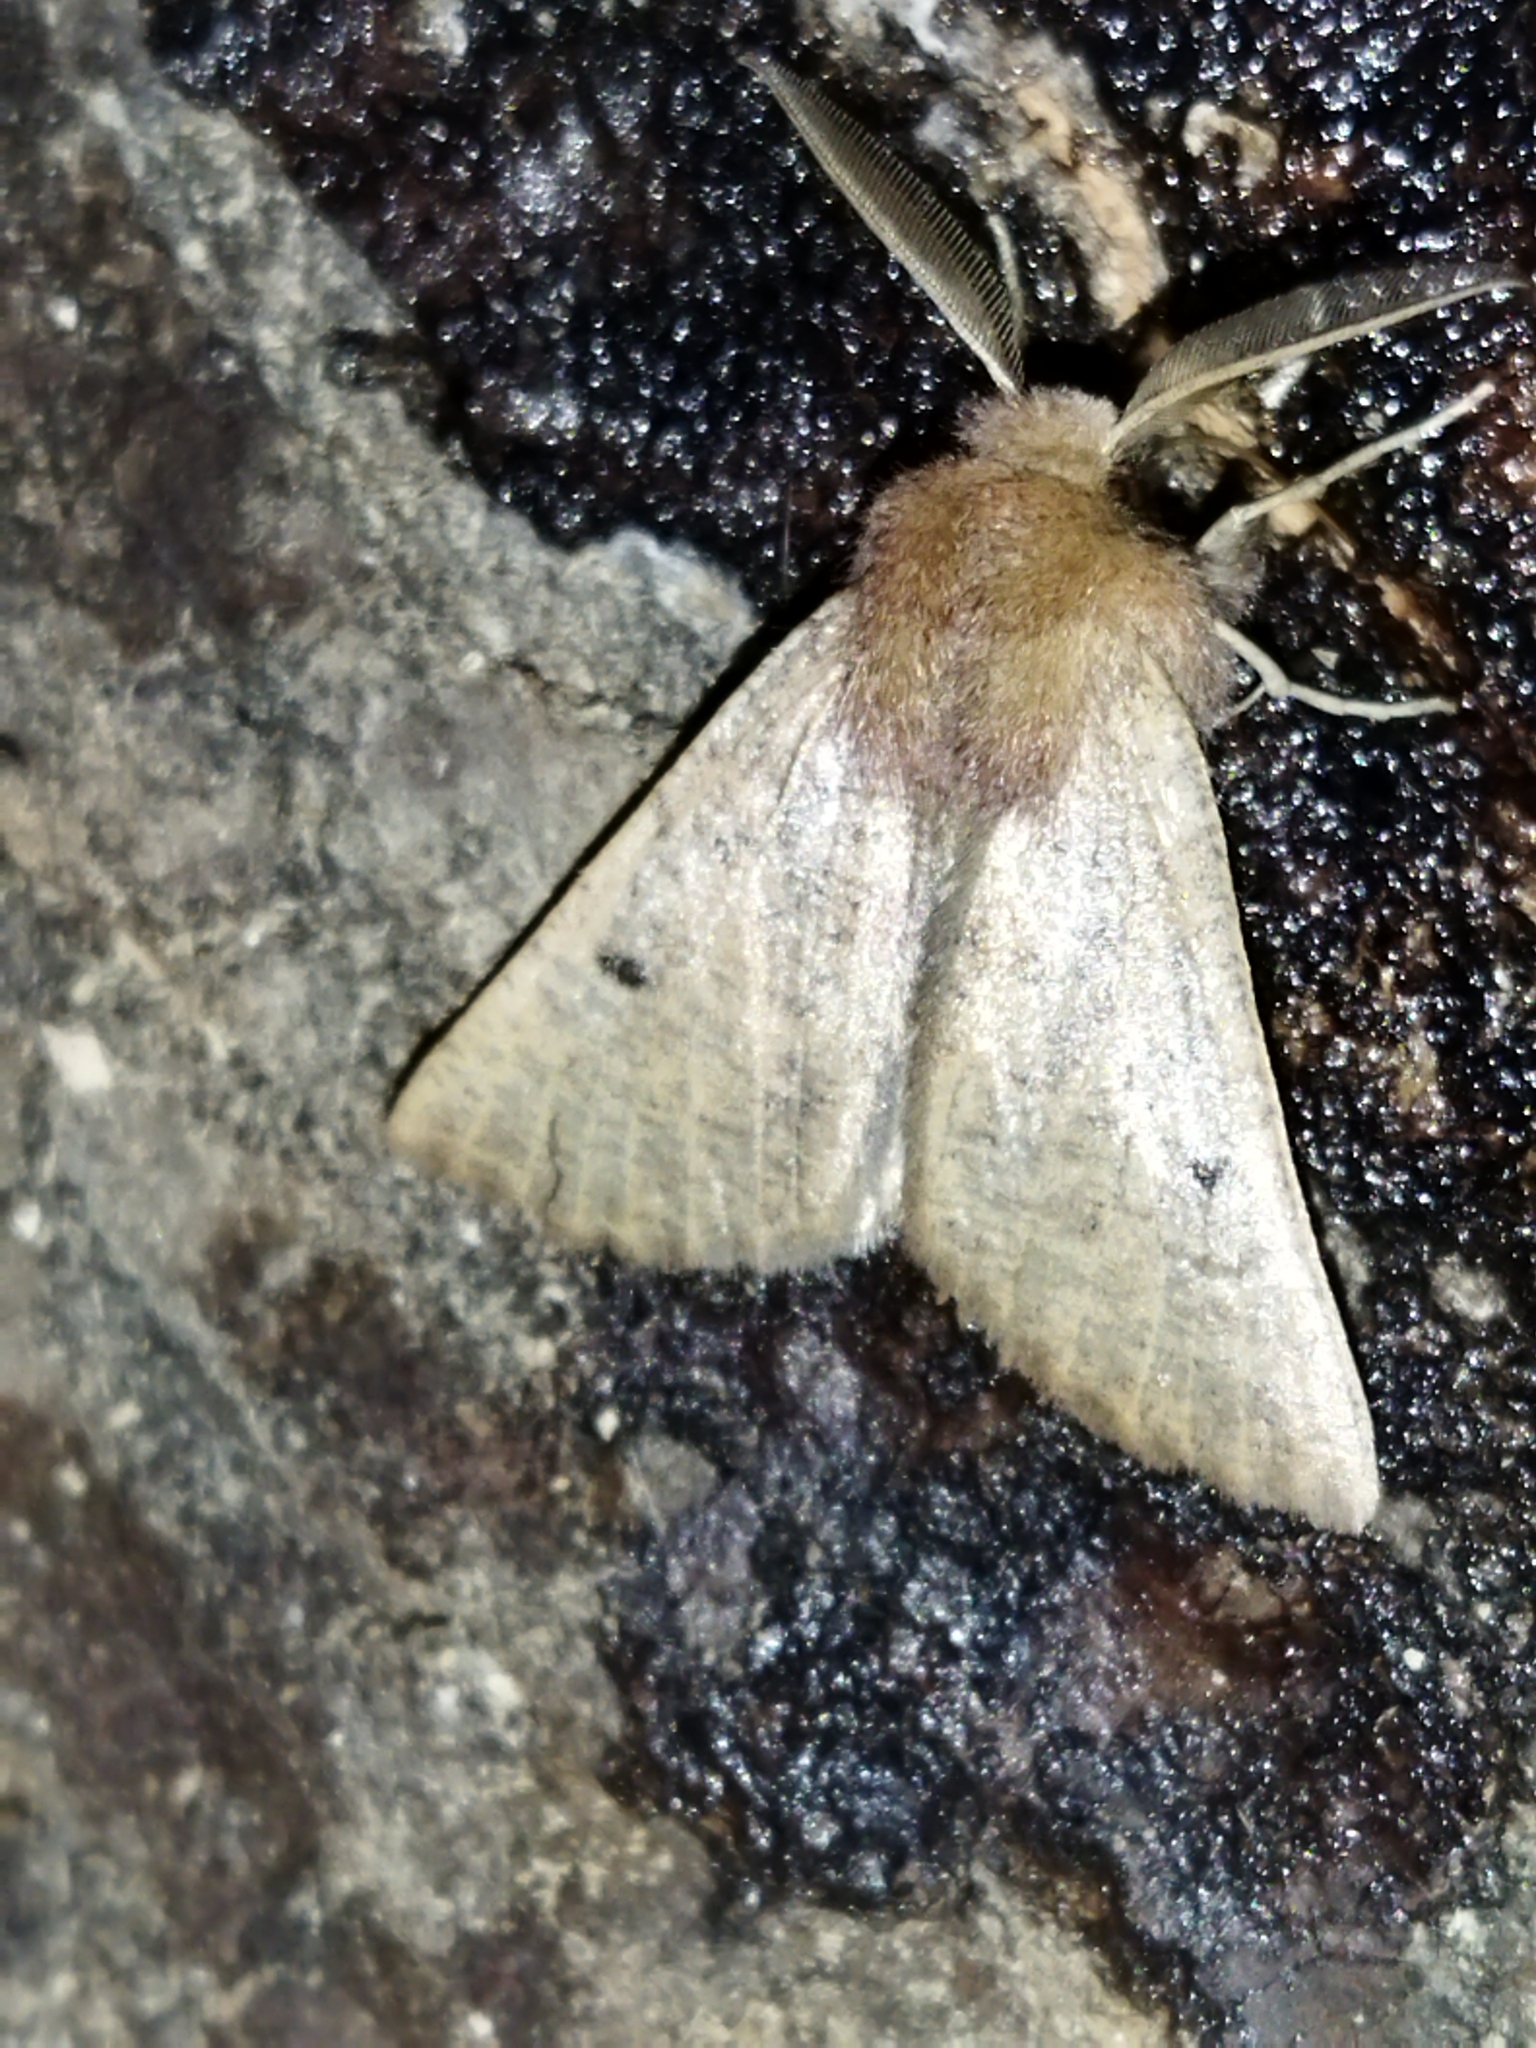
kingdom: Animalia
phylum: Arthropoda
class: Insecta
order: Lepidoptera
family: Geometridae
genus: Dasycorsa
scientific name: Dasycorsa modesta
